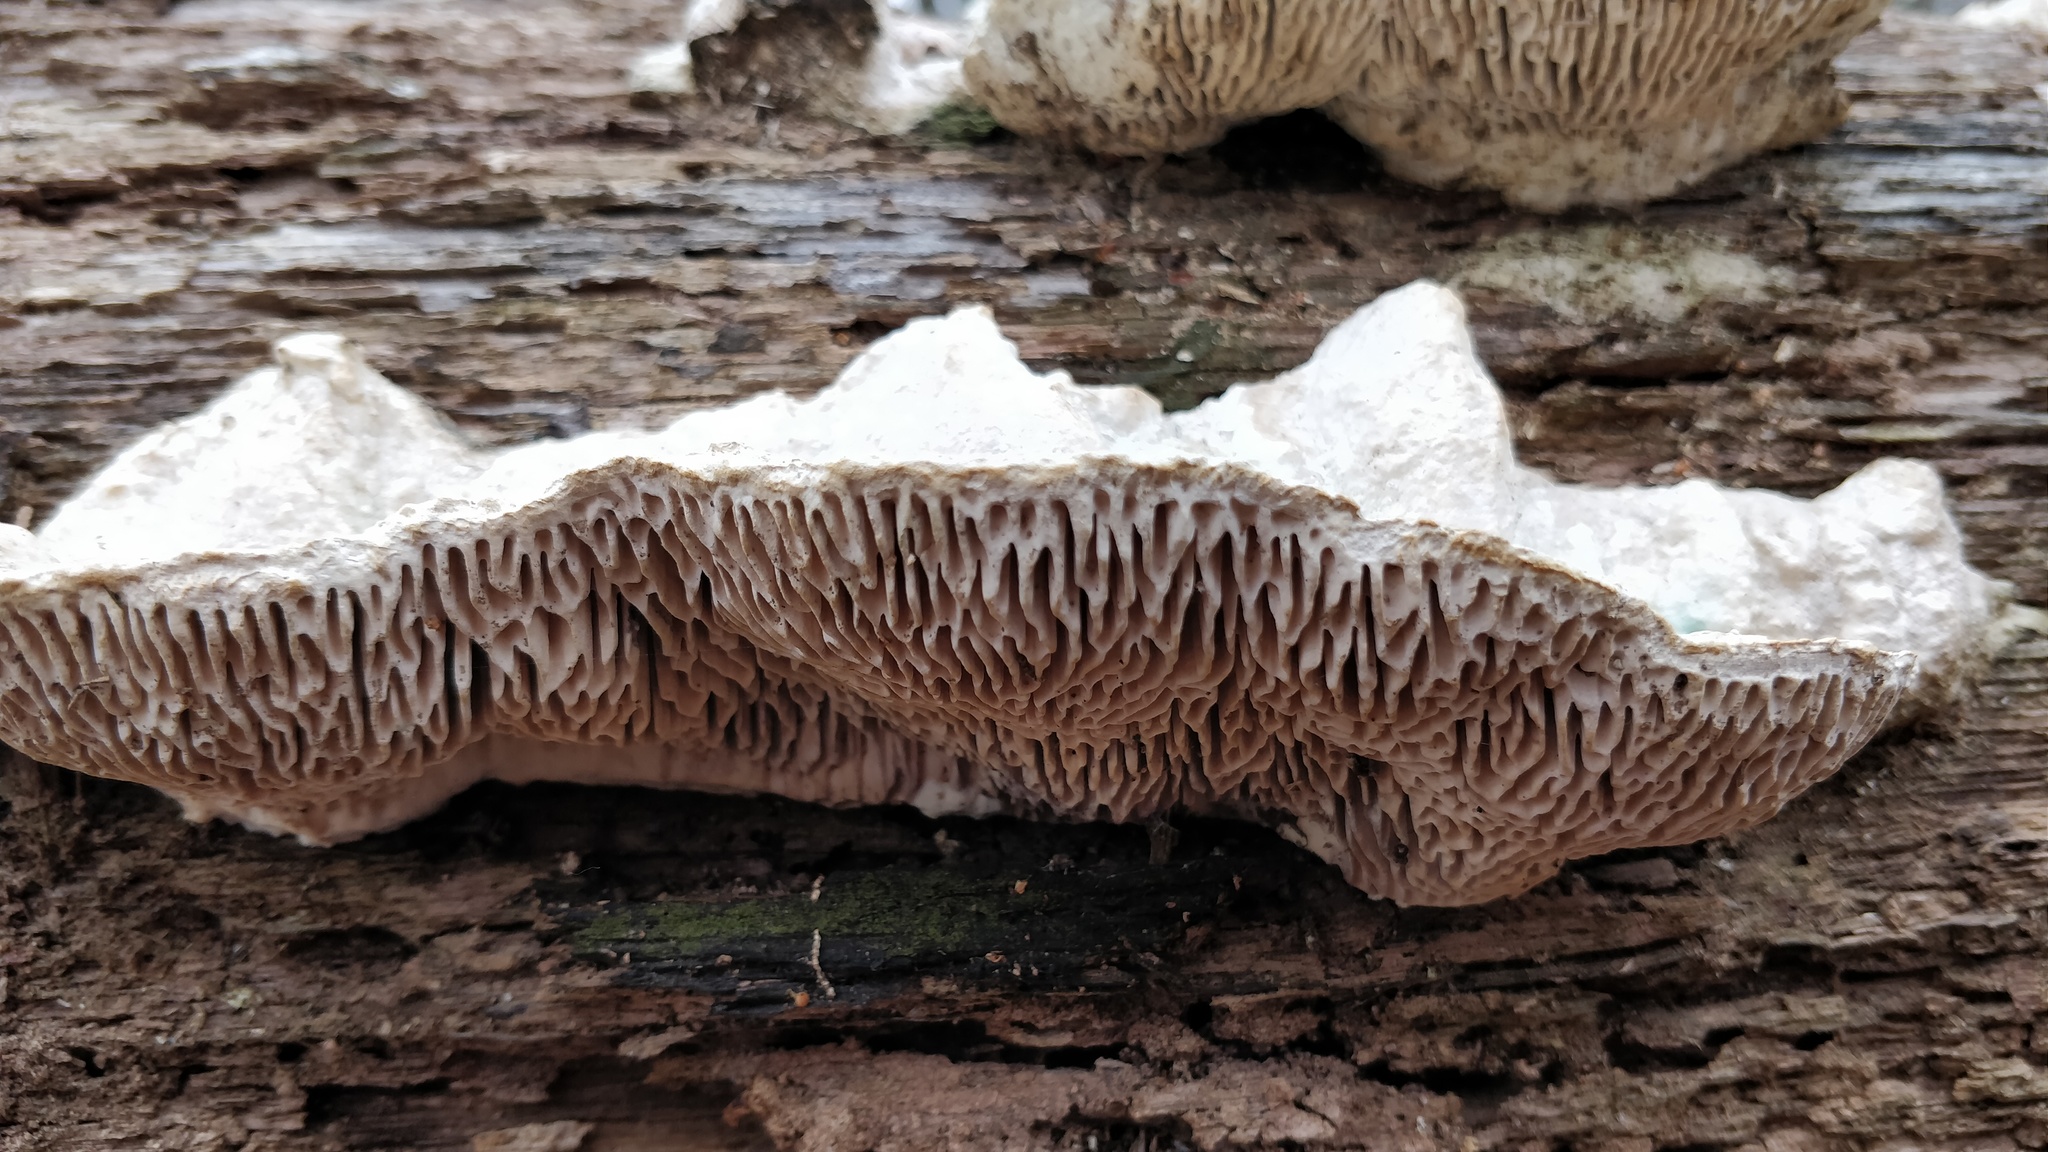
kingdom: Fungi
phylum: Basidiomycota
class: Agaricomycetes
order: Polyporales
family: Fomitopsidaceae
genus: Fomitopsis
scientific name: Fomitopsis
